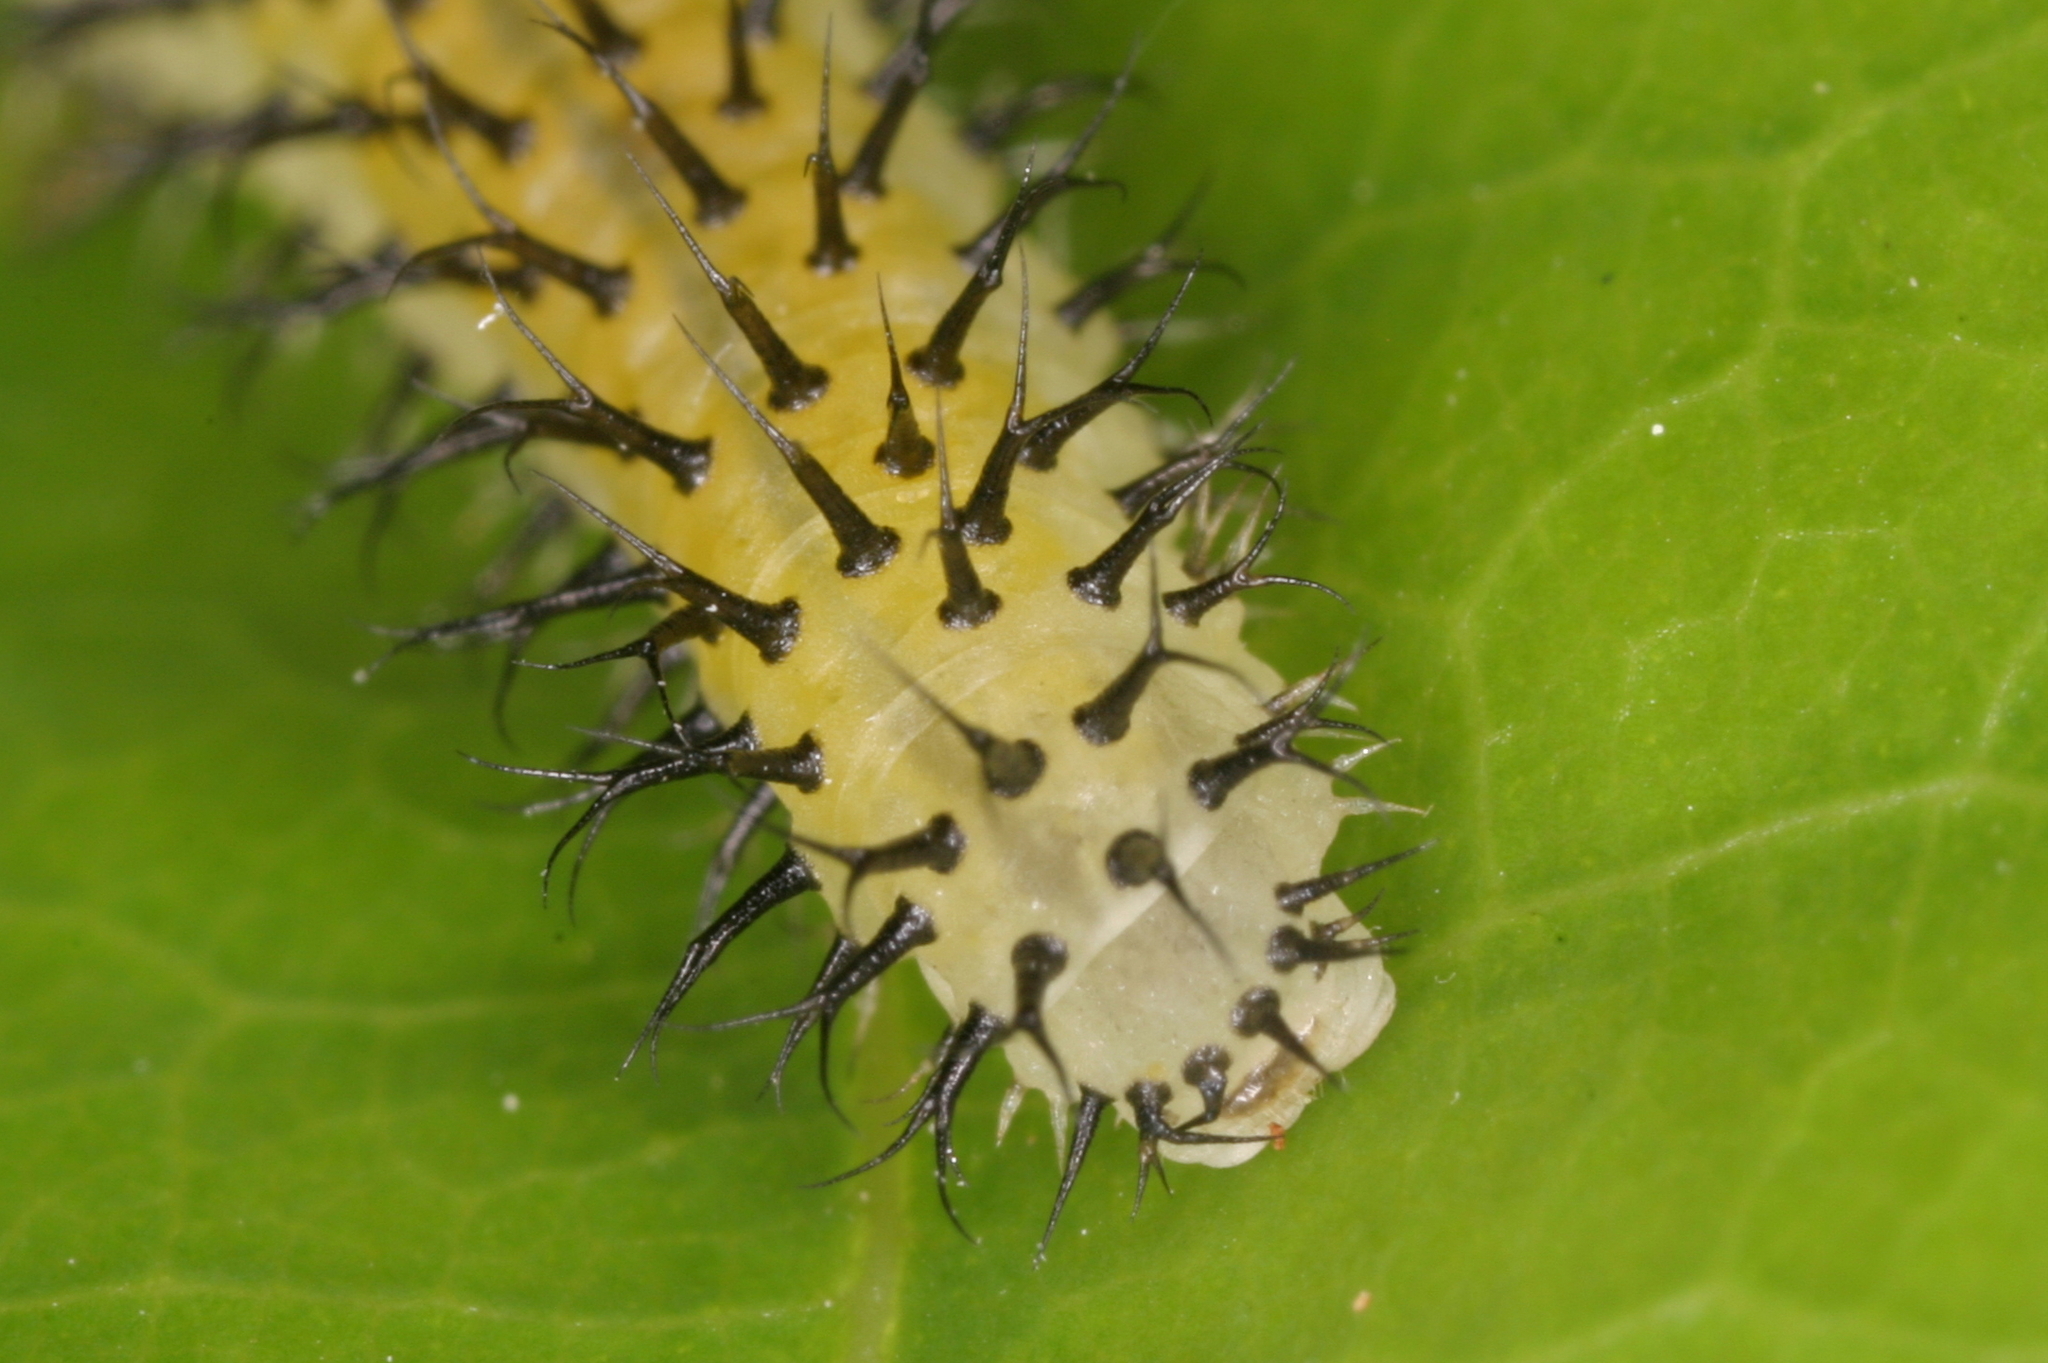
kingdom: Animalia
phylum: Arthropoda
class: Insecta
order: Hymenoptera
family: Tenthredinidae
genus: Periclista
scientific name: Periclista lineolata
